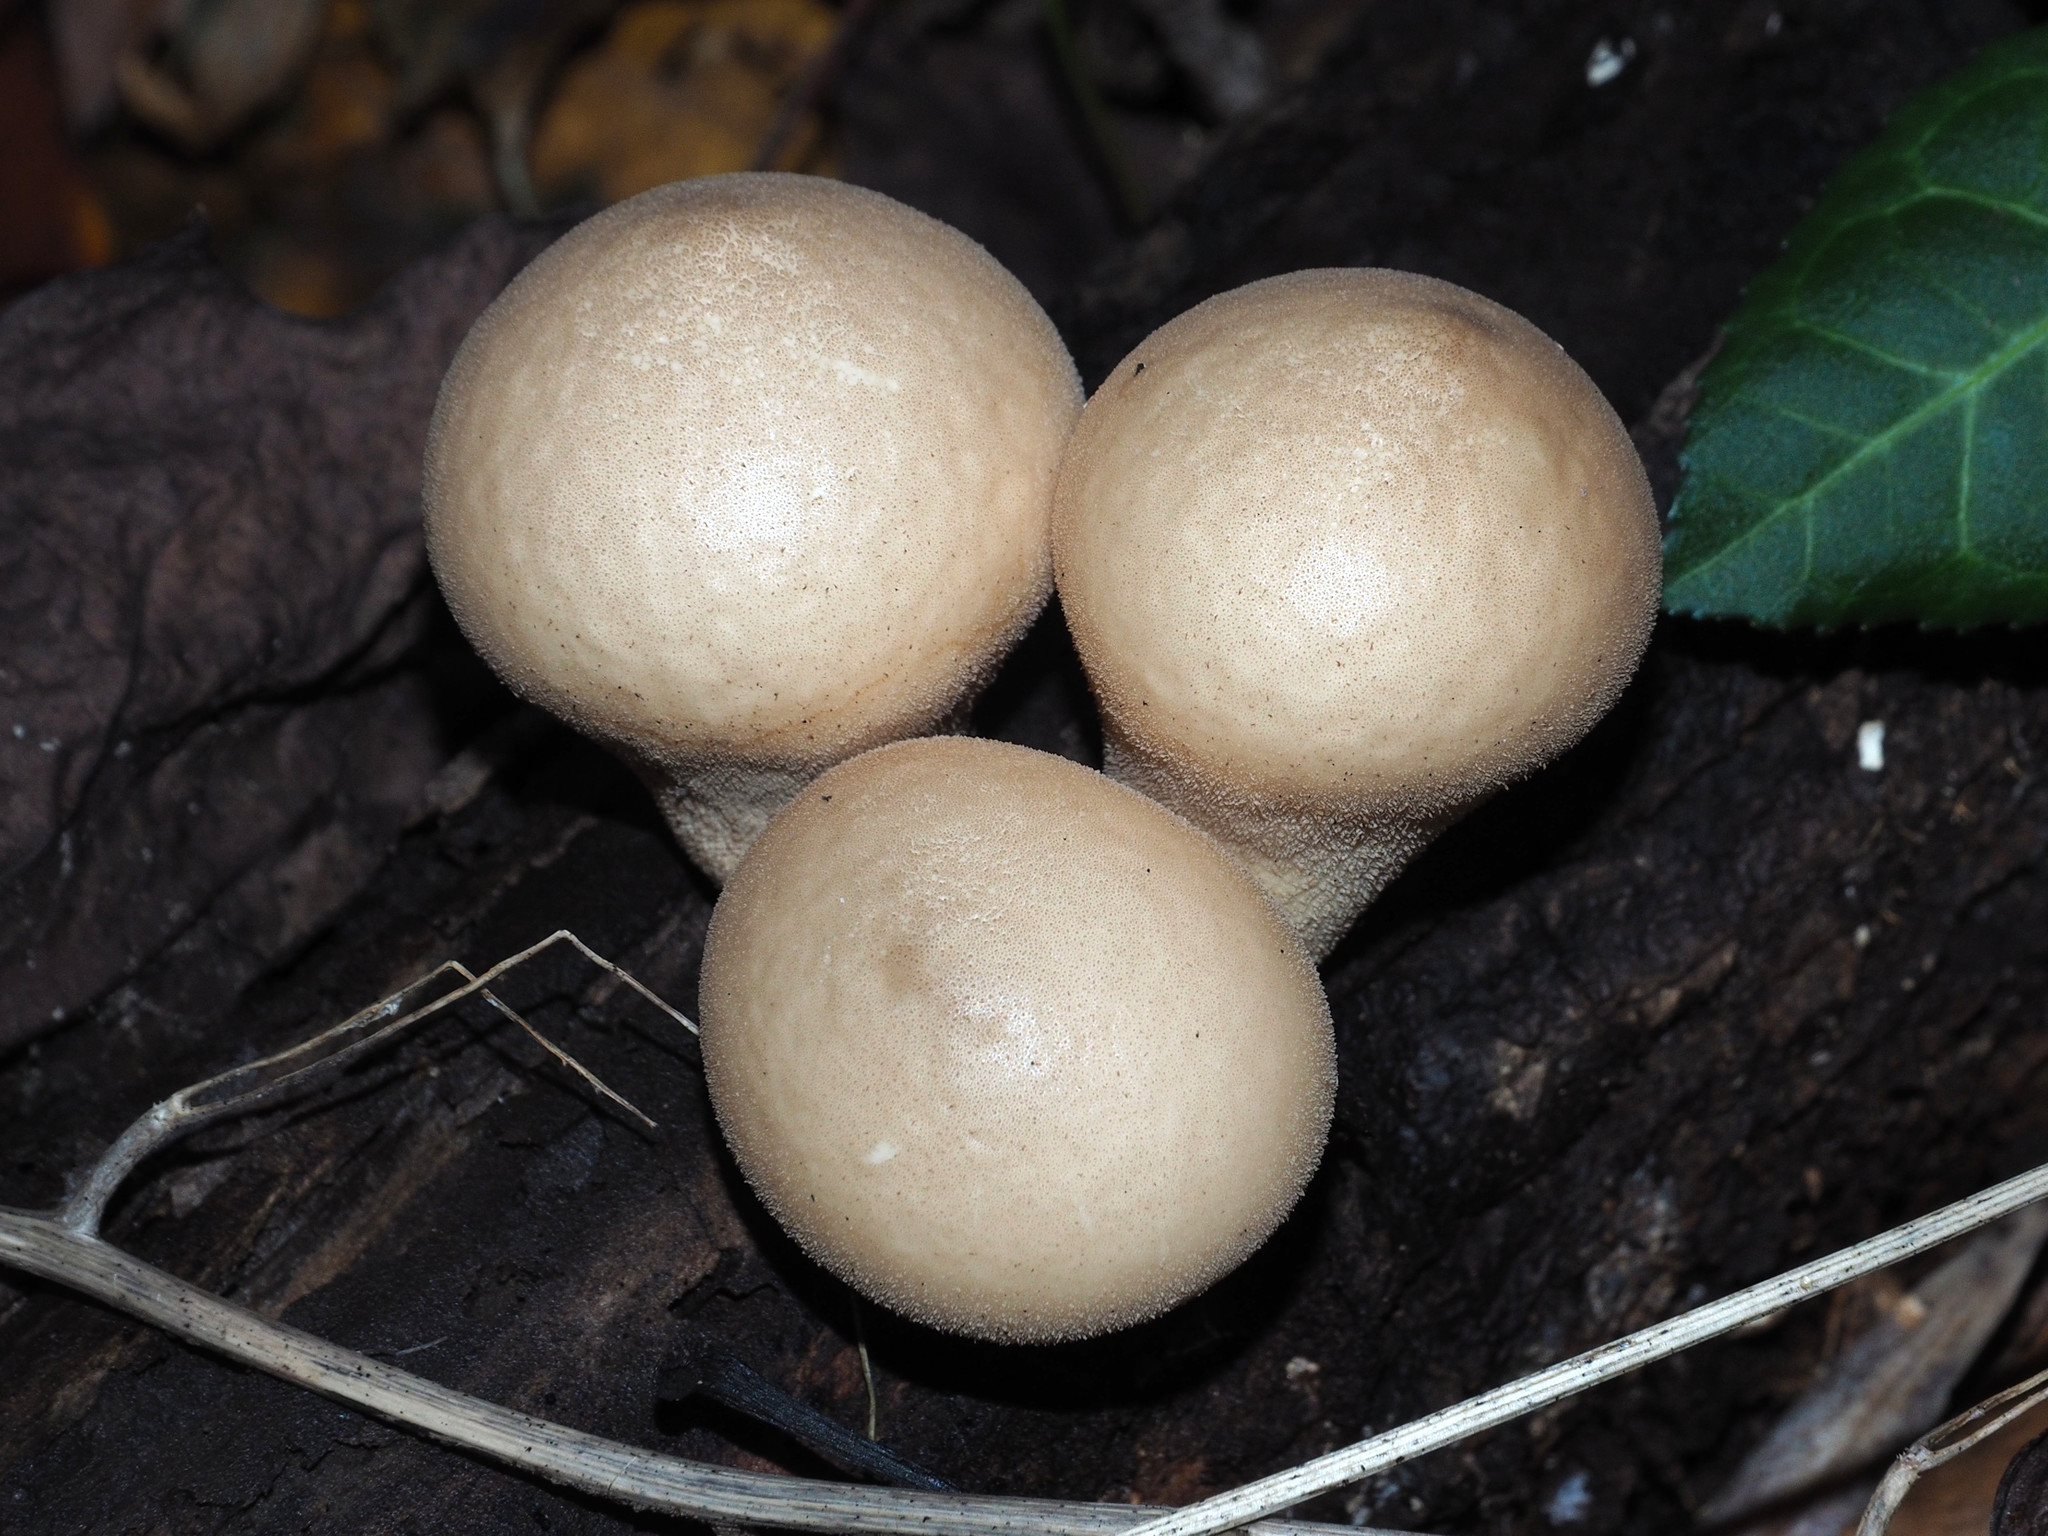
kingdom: Fungi
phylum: Basidiomycota
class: Agaricomycetes
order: Agaricales
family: Lycoperdaceae
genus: Apioperdon
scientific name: Apioperdon pyriforme
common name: Pear-shaped puffball
